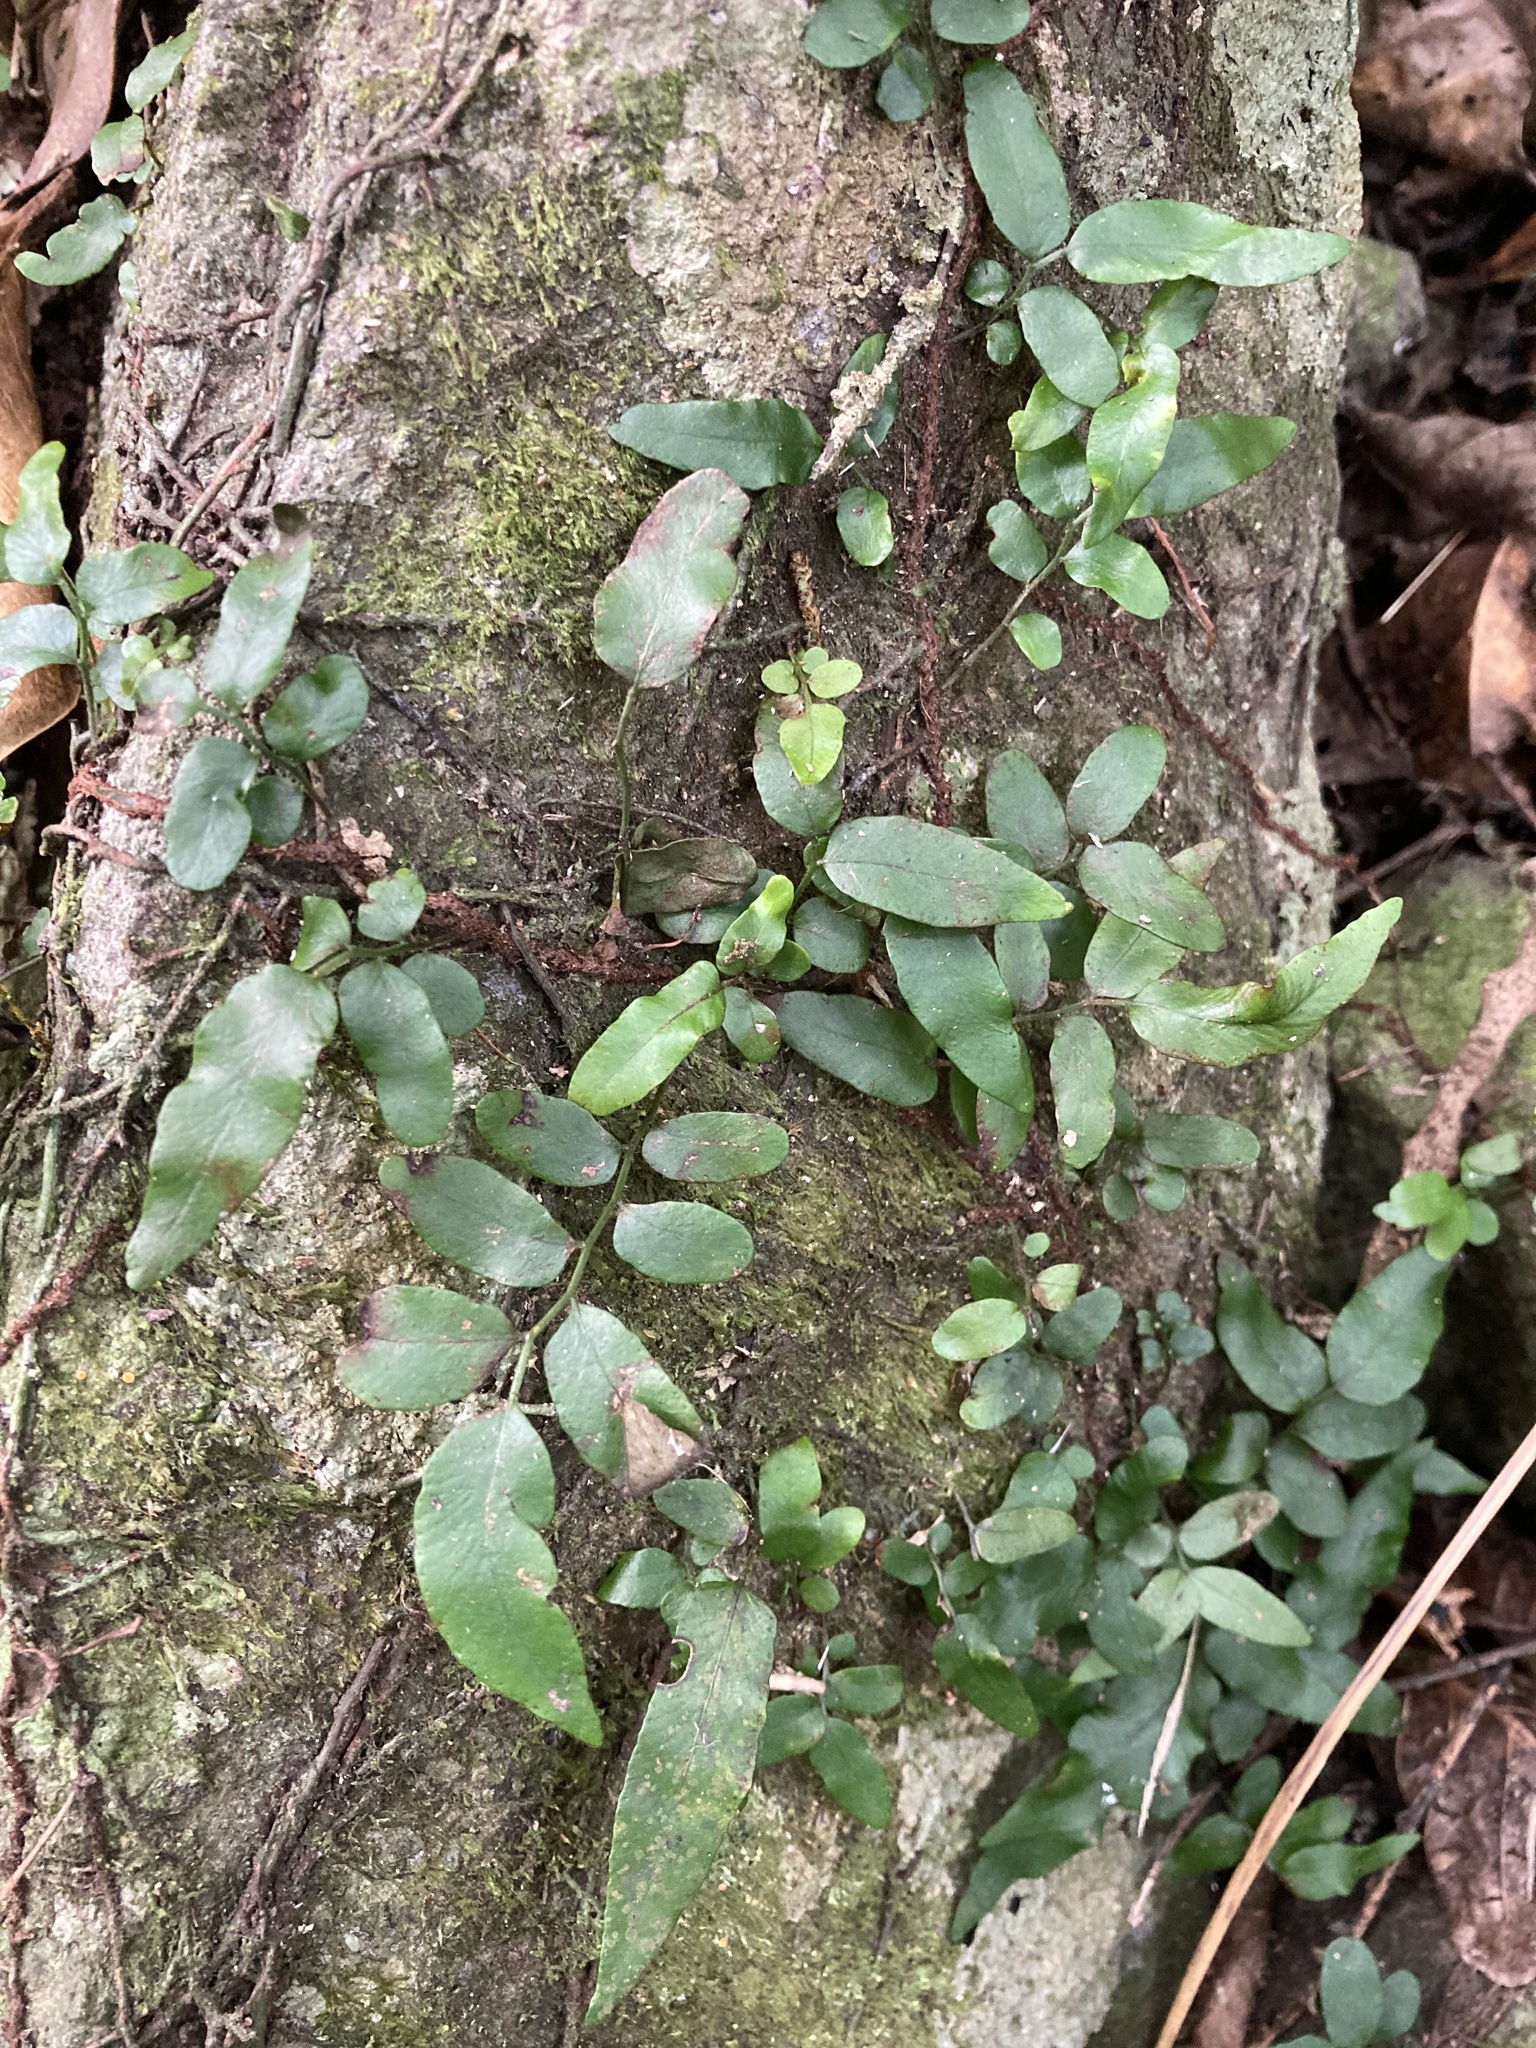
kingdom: Plantae
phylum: Tracheophyta
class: Polypodiopsida
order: Polypodiales
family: Tectariaceae
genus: Arthropteris
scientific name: Arthropteris tenella
